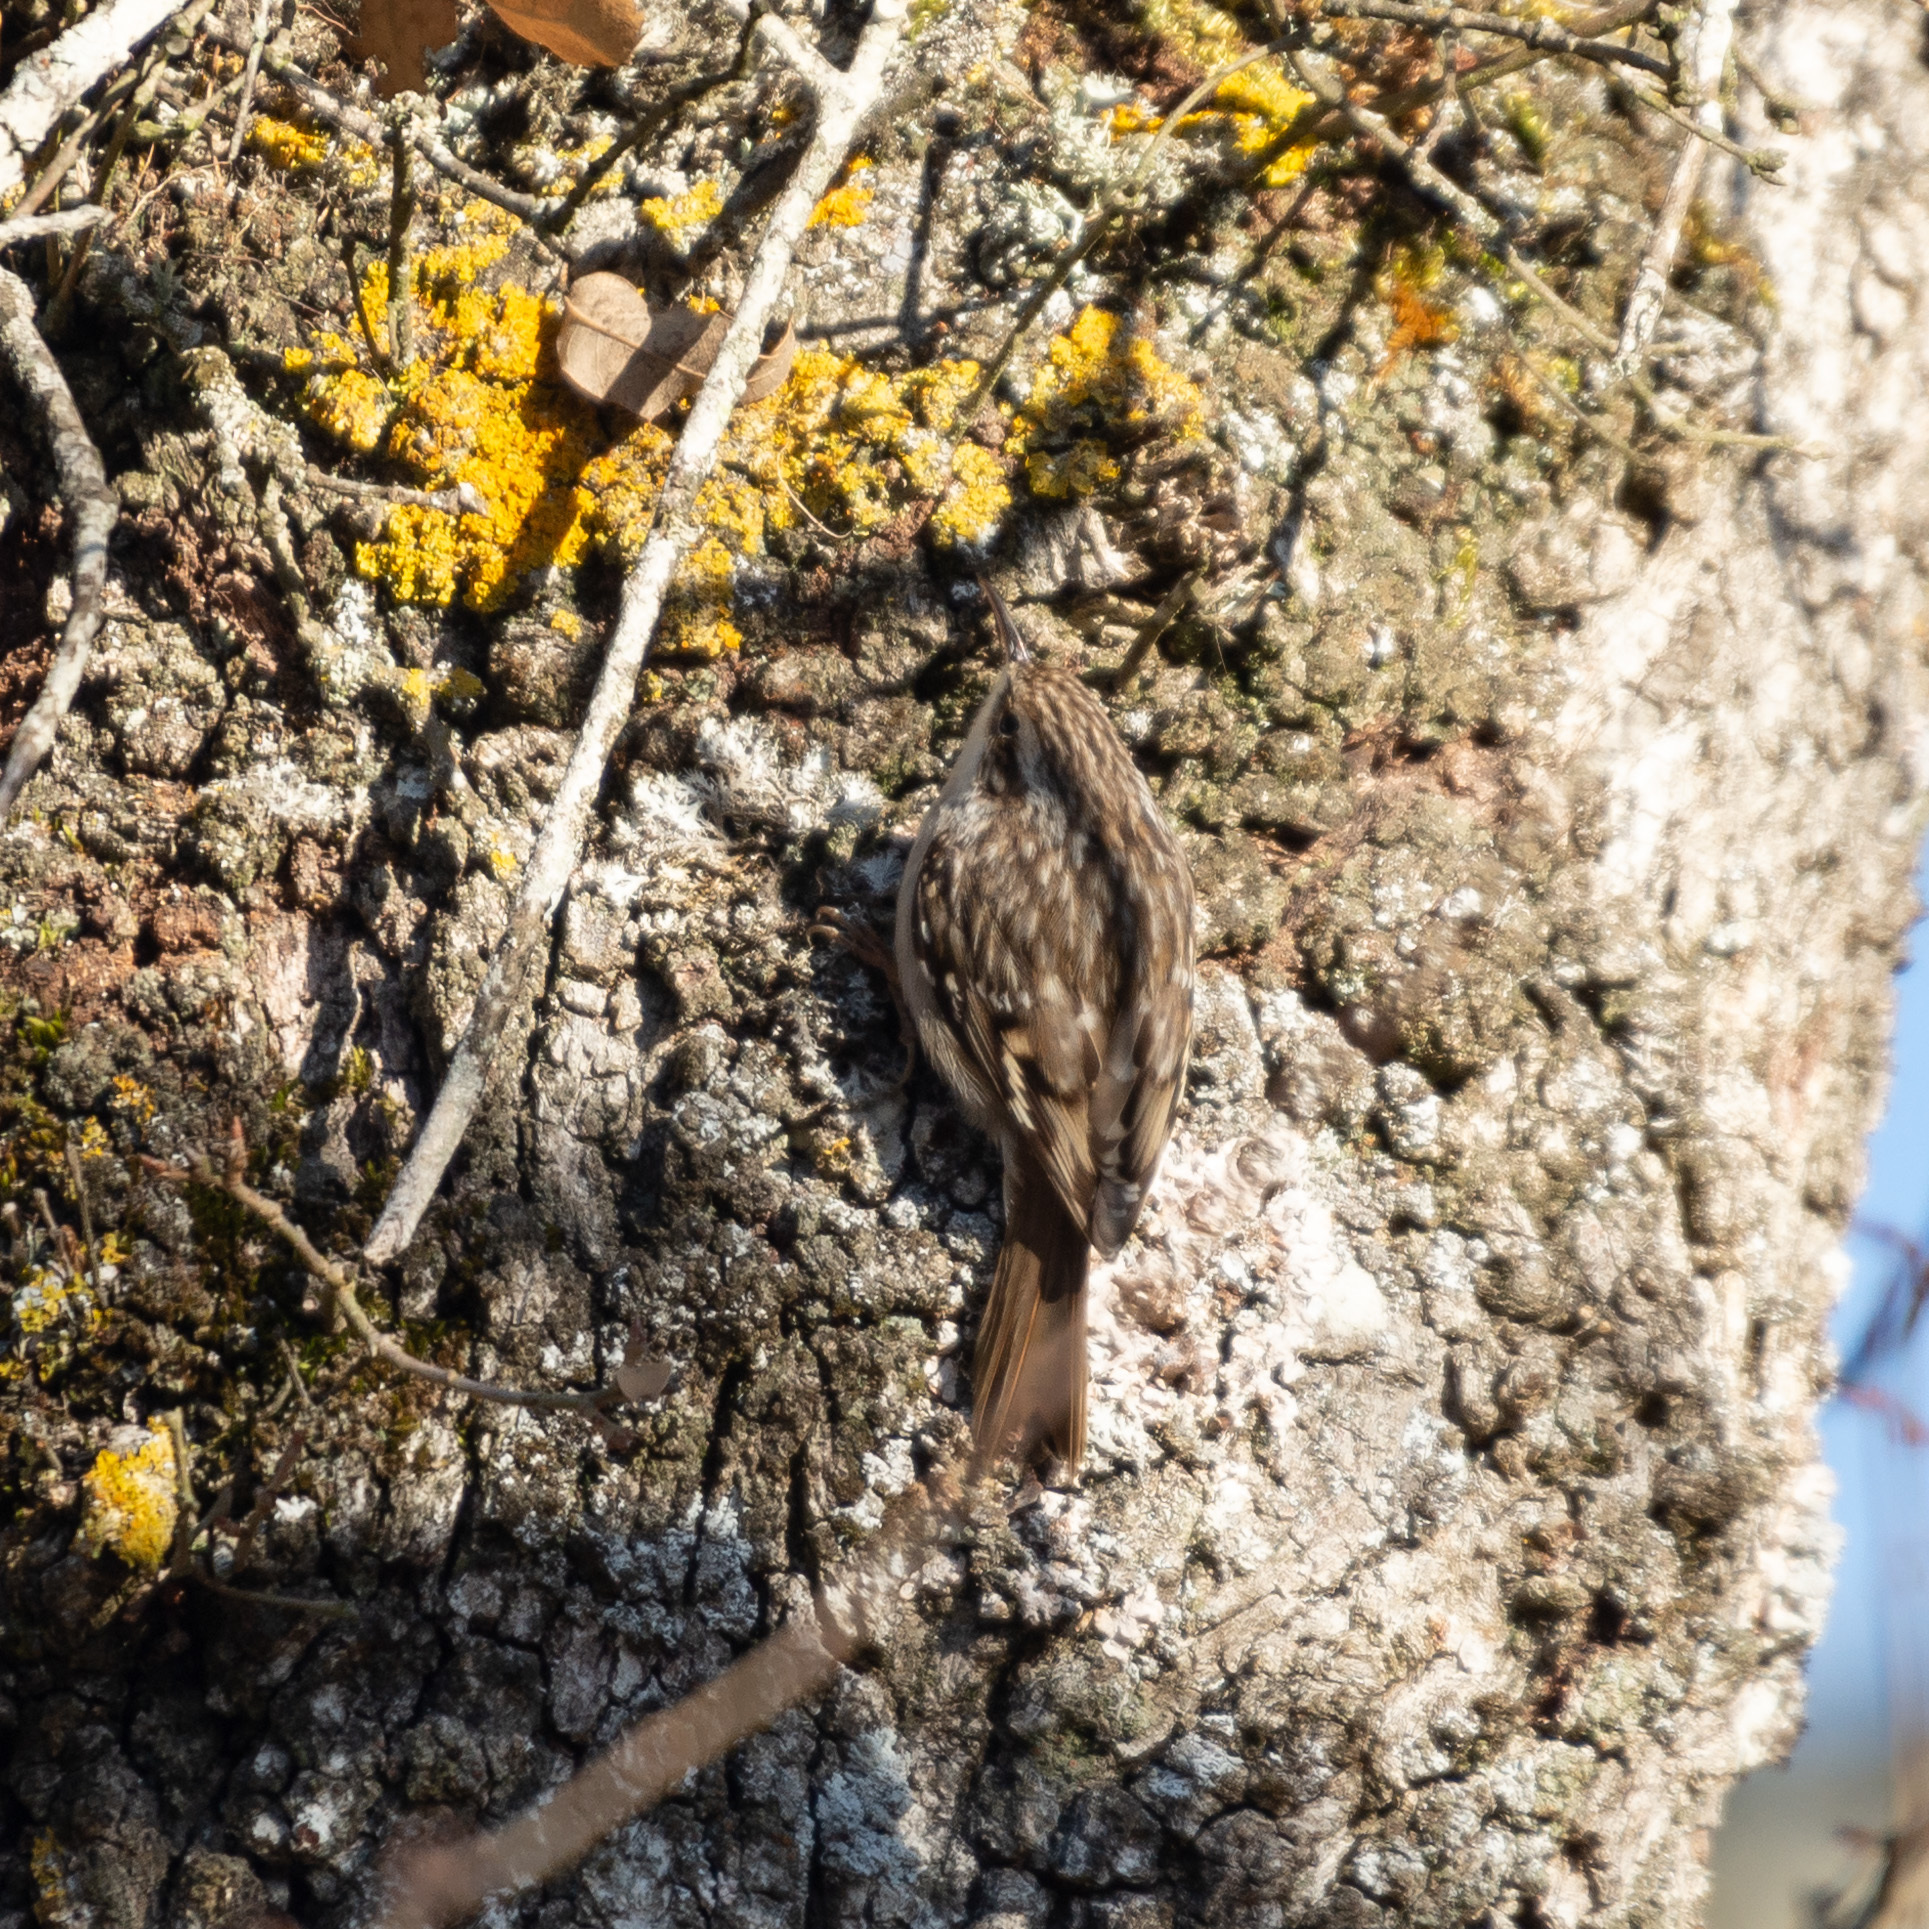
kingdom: Animalia
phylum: Chordata
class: Aves
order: Passeriformes
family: Certhiidae
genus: Certhia
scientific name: Certhia brachydactyla
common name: Short-toed treecreeper
